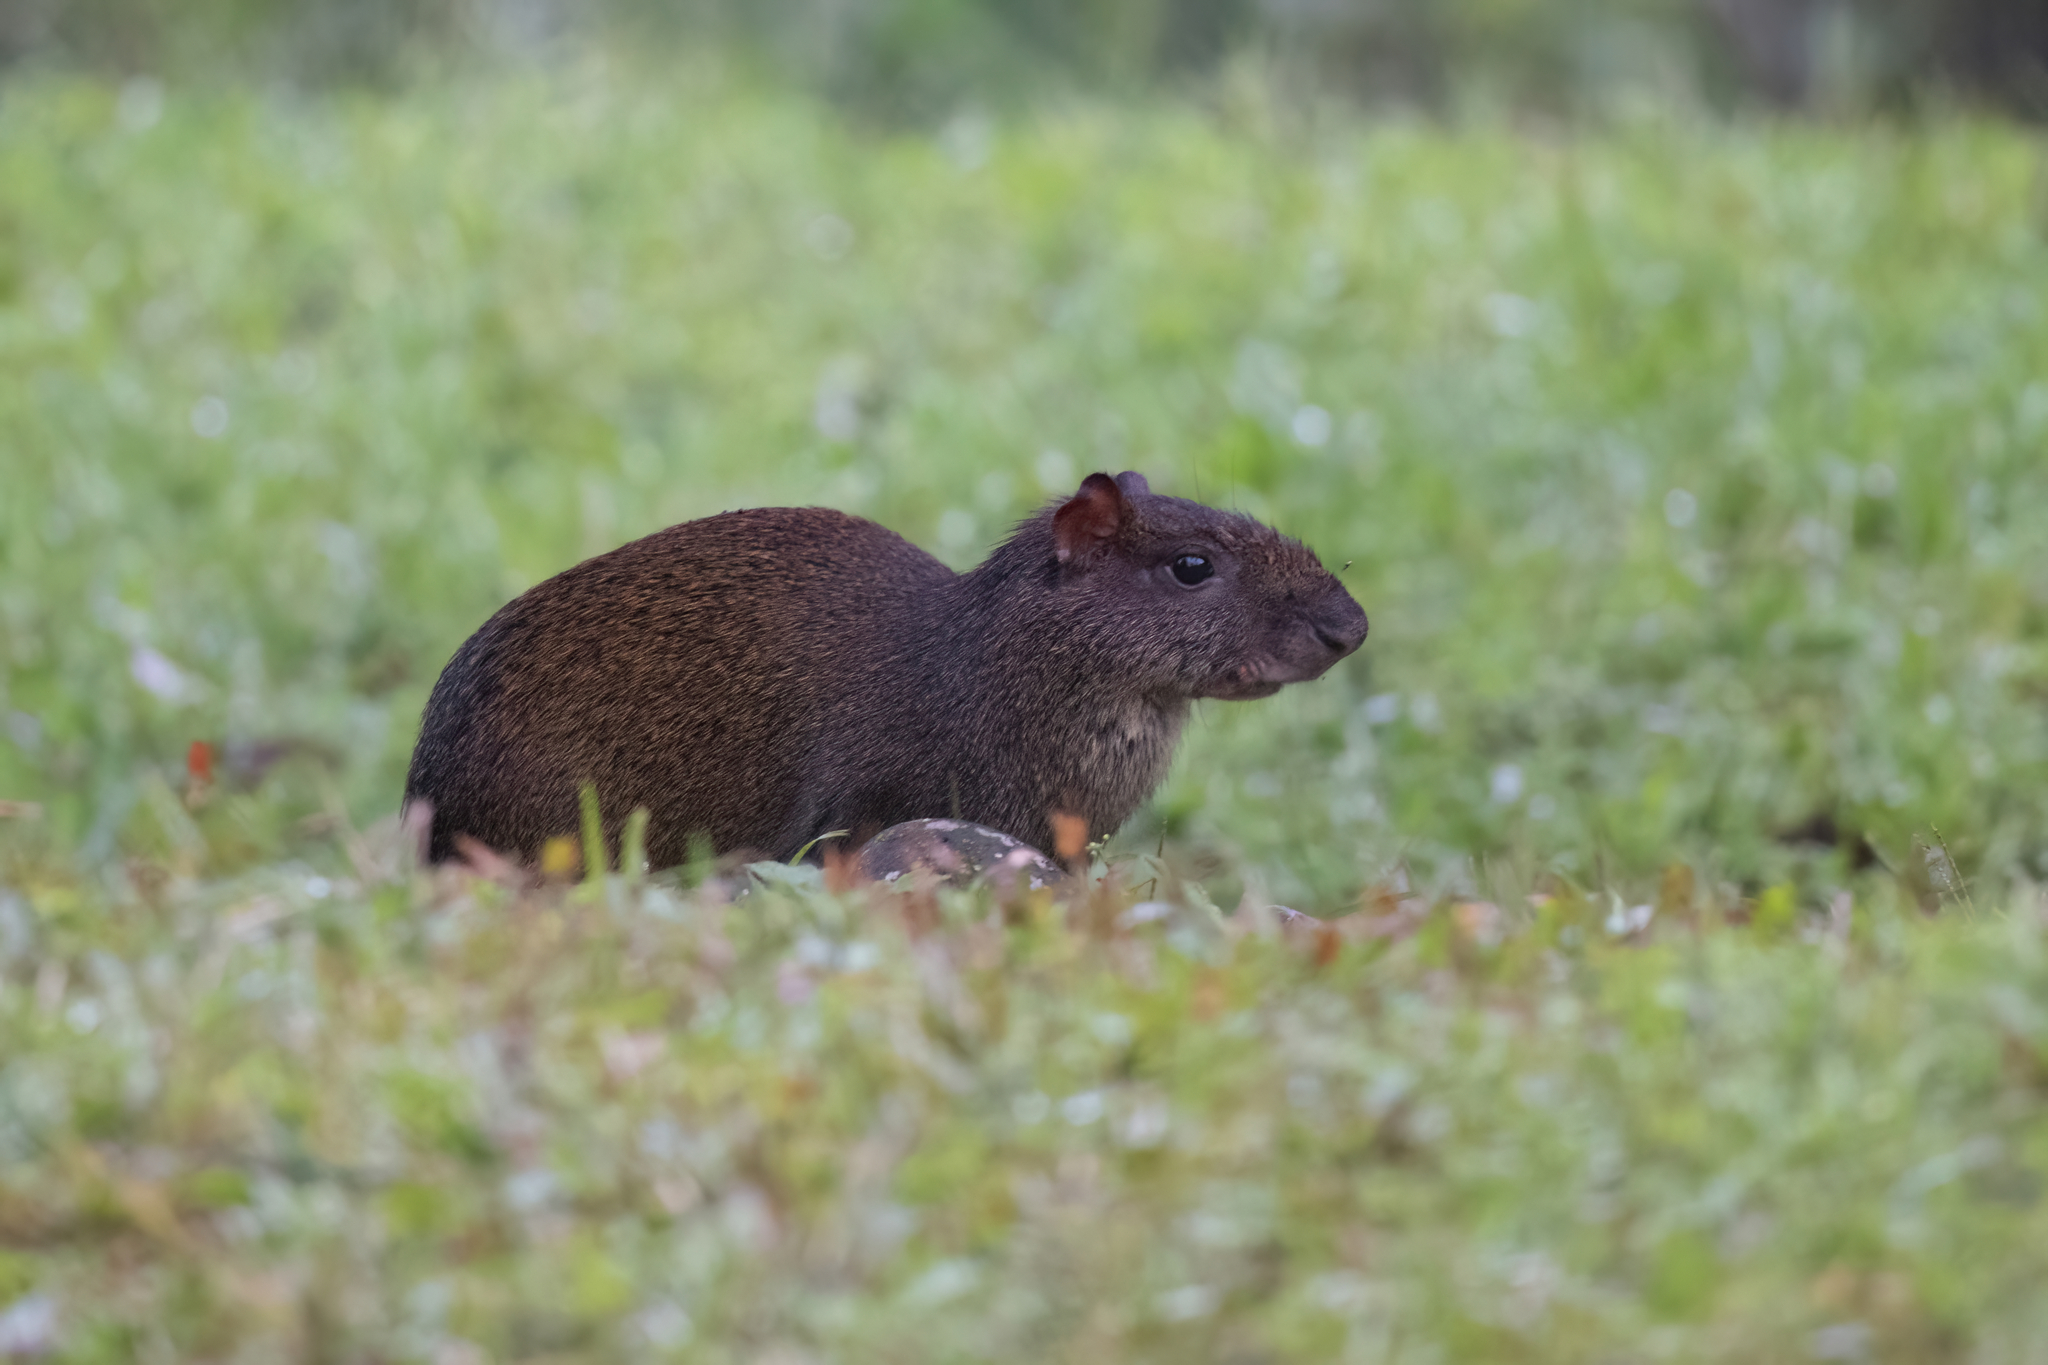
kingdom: Animalia
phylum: Chordata
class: Mammalia
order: Rodentia
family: Dasyproctidae
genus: Dasyprocta
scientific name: Dasyprocta punctata
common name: Central american agouti
